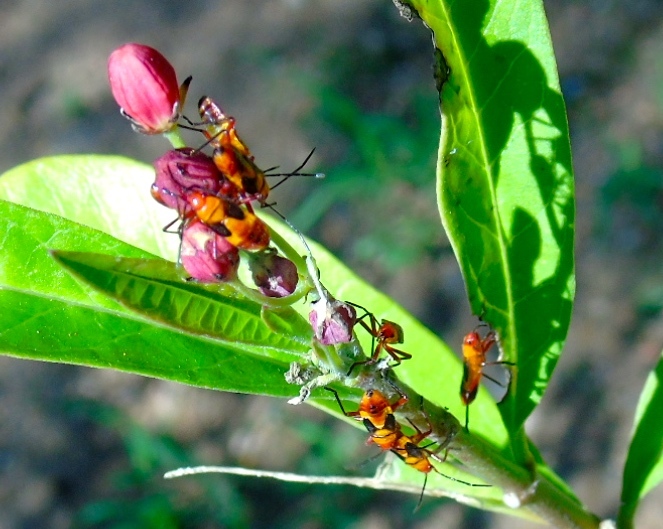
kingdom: Animalia
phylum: Arthropoda
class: Insecta
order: Hemiptera
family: Lygaeidae
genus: Oncopeltus
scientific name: Oncopeltus
